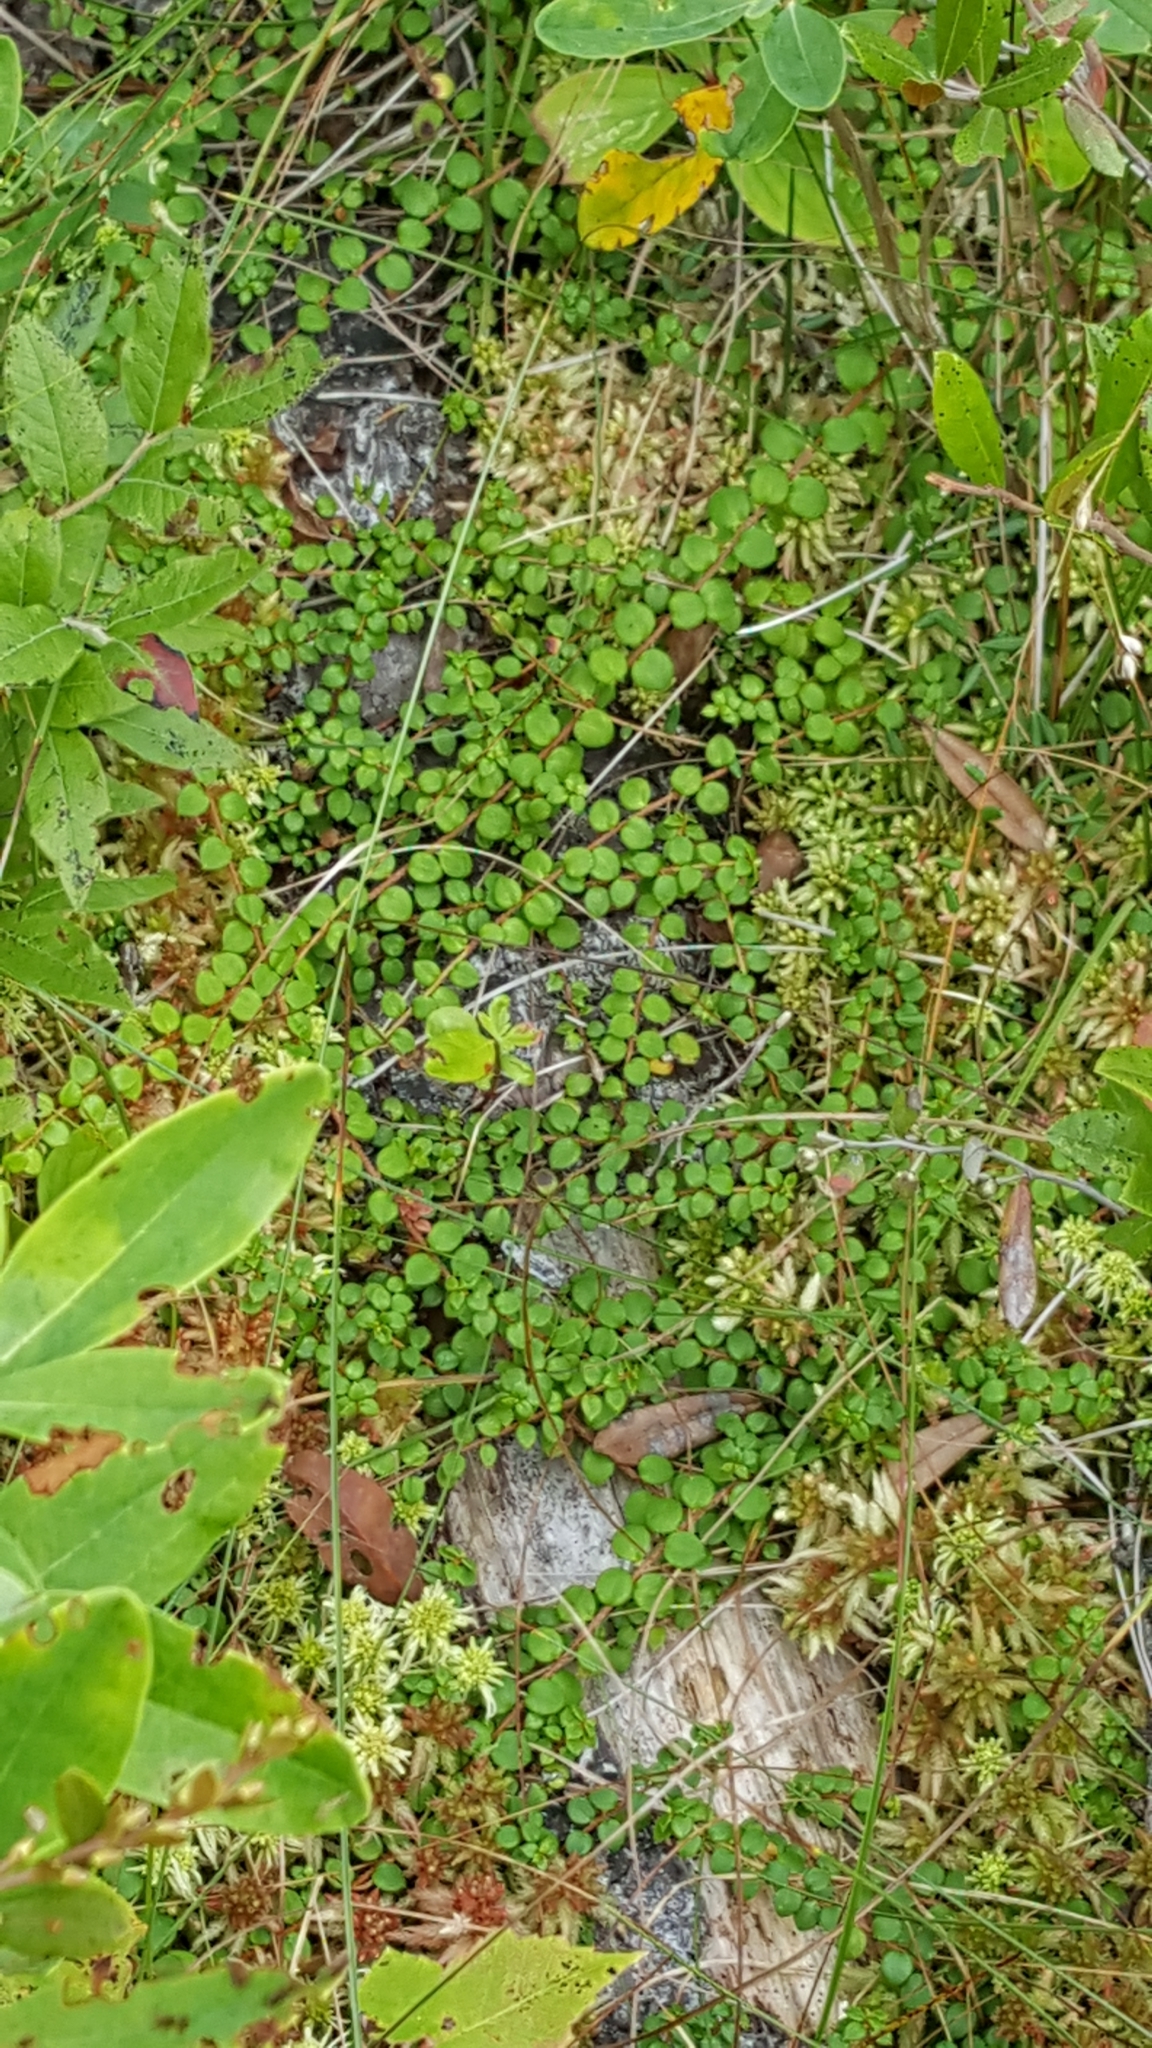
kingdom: Plantae
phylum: Tracheophyta
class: Magnoliopsida
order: Ericales
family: Ericaceae
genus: Gaultheria
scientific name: Gaultheria hispidula
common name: Cancer wintergreen
